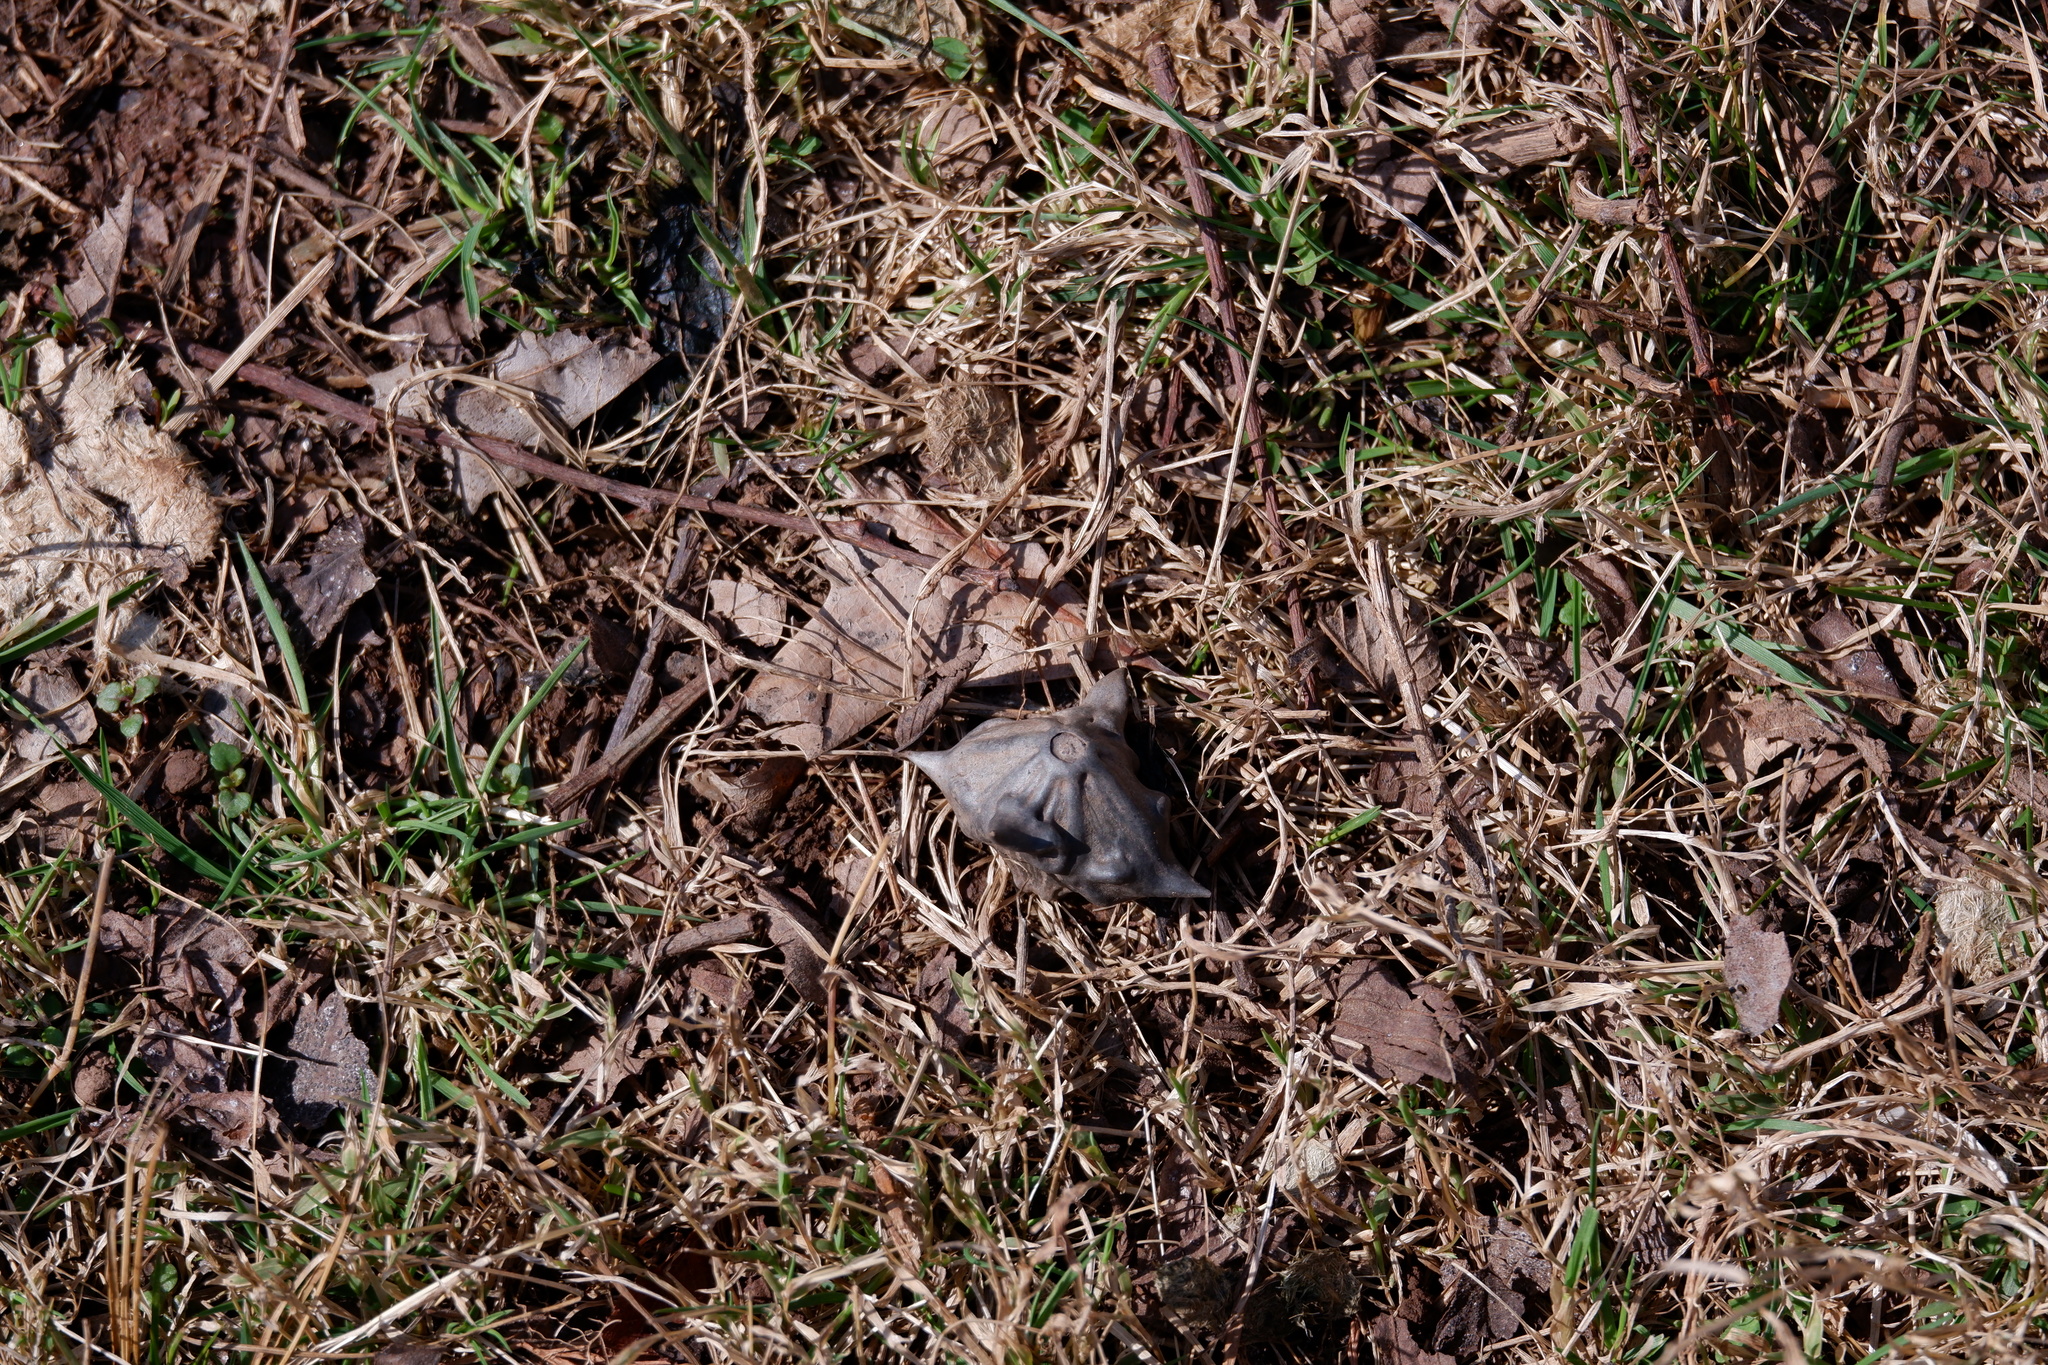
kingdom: Plantae
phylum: Tracheophyta
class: Magnoliopsida
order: Myrtales
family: Lythraceae
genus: Trapa
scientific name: Trapa natans
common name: Water chestnut
